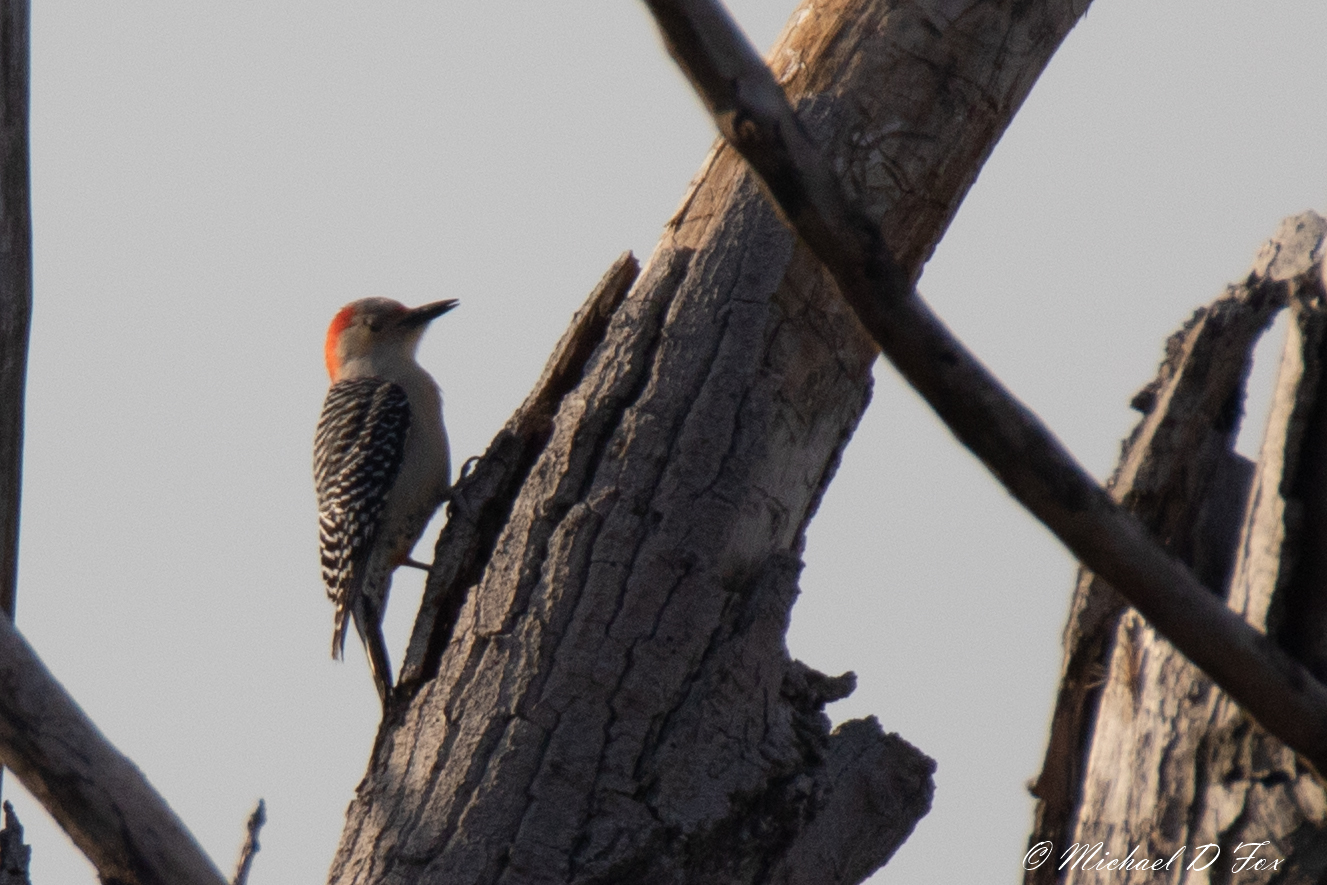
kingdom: Animalia
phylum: Chordata
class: Aves
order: Piciformes
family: Picidae
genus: Melanerpes
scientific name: Melanerpes carolinus
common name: Red-bellied woodpecker
